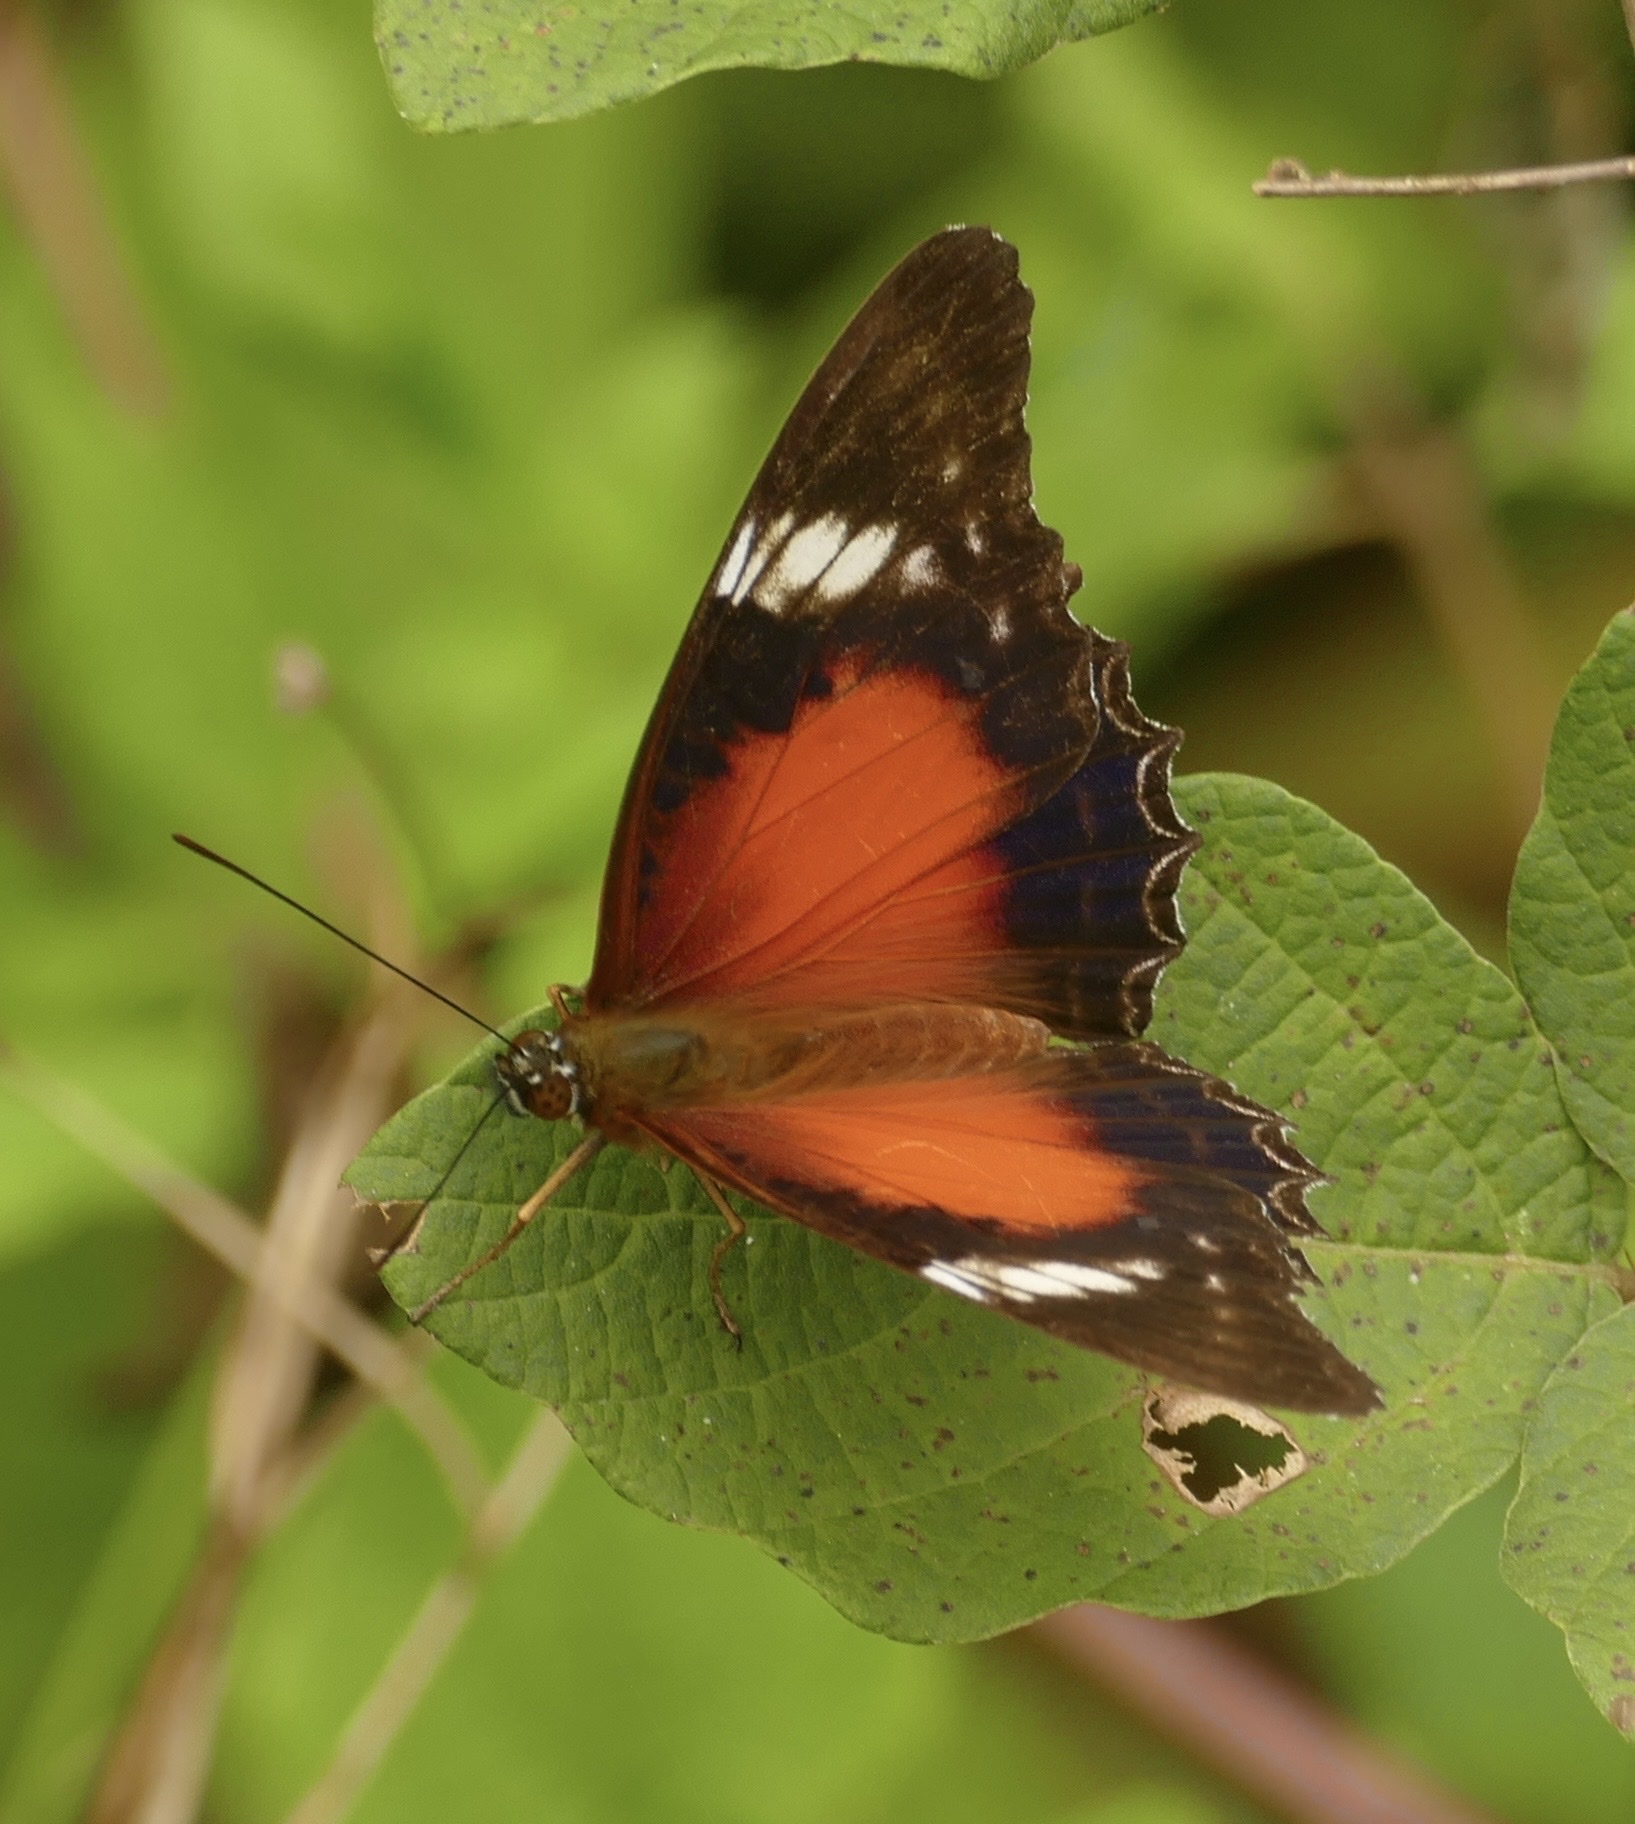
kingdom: Animalia
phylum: Arthropoda
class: Insecta
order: Lepidoptera
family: Nymphalidae
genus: Cethosia
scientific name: Cethosia cydippe
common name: Eastern red lacewing butterfly
